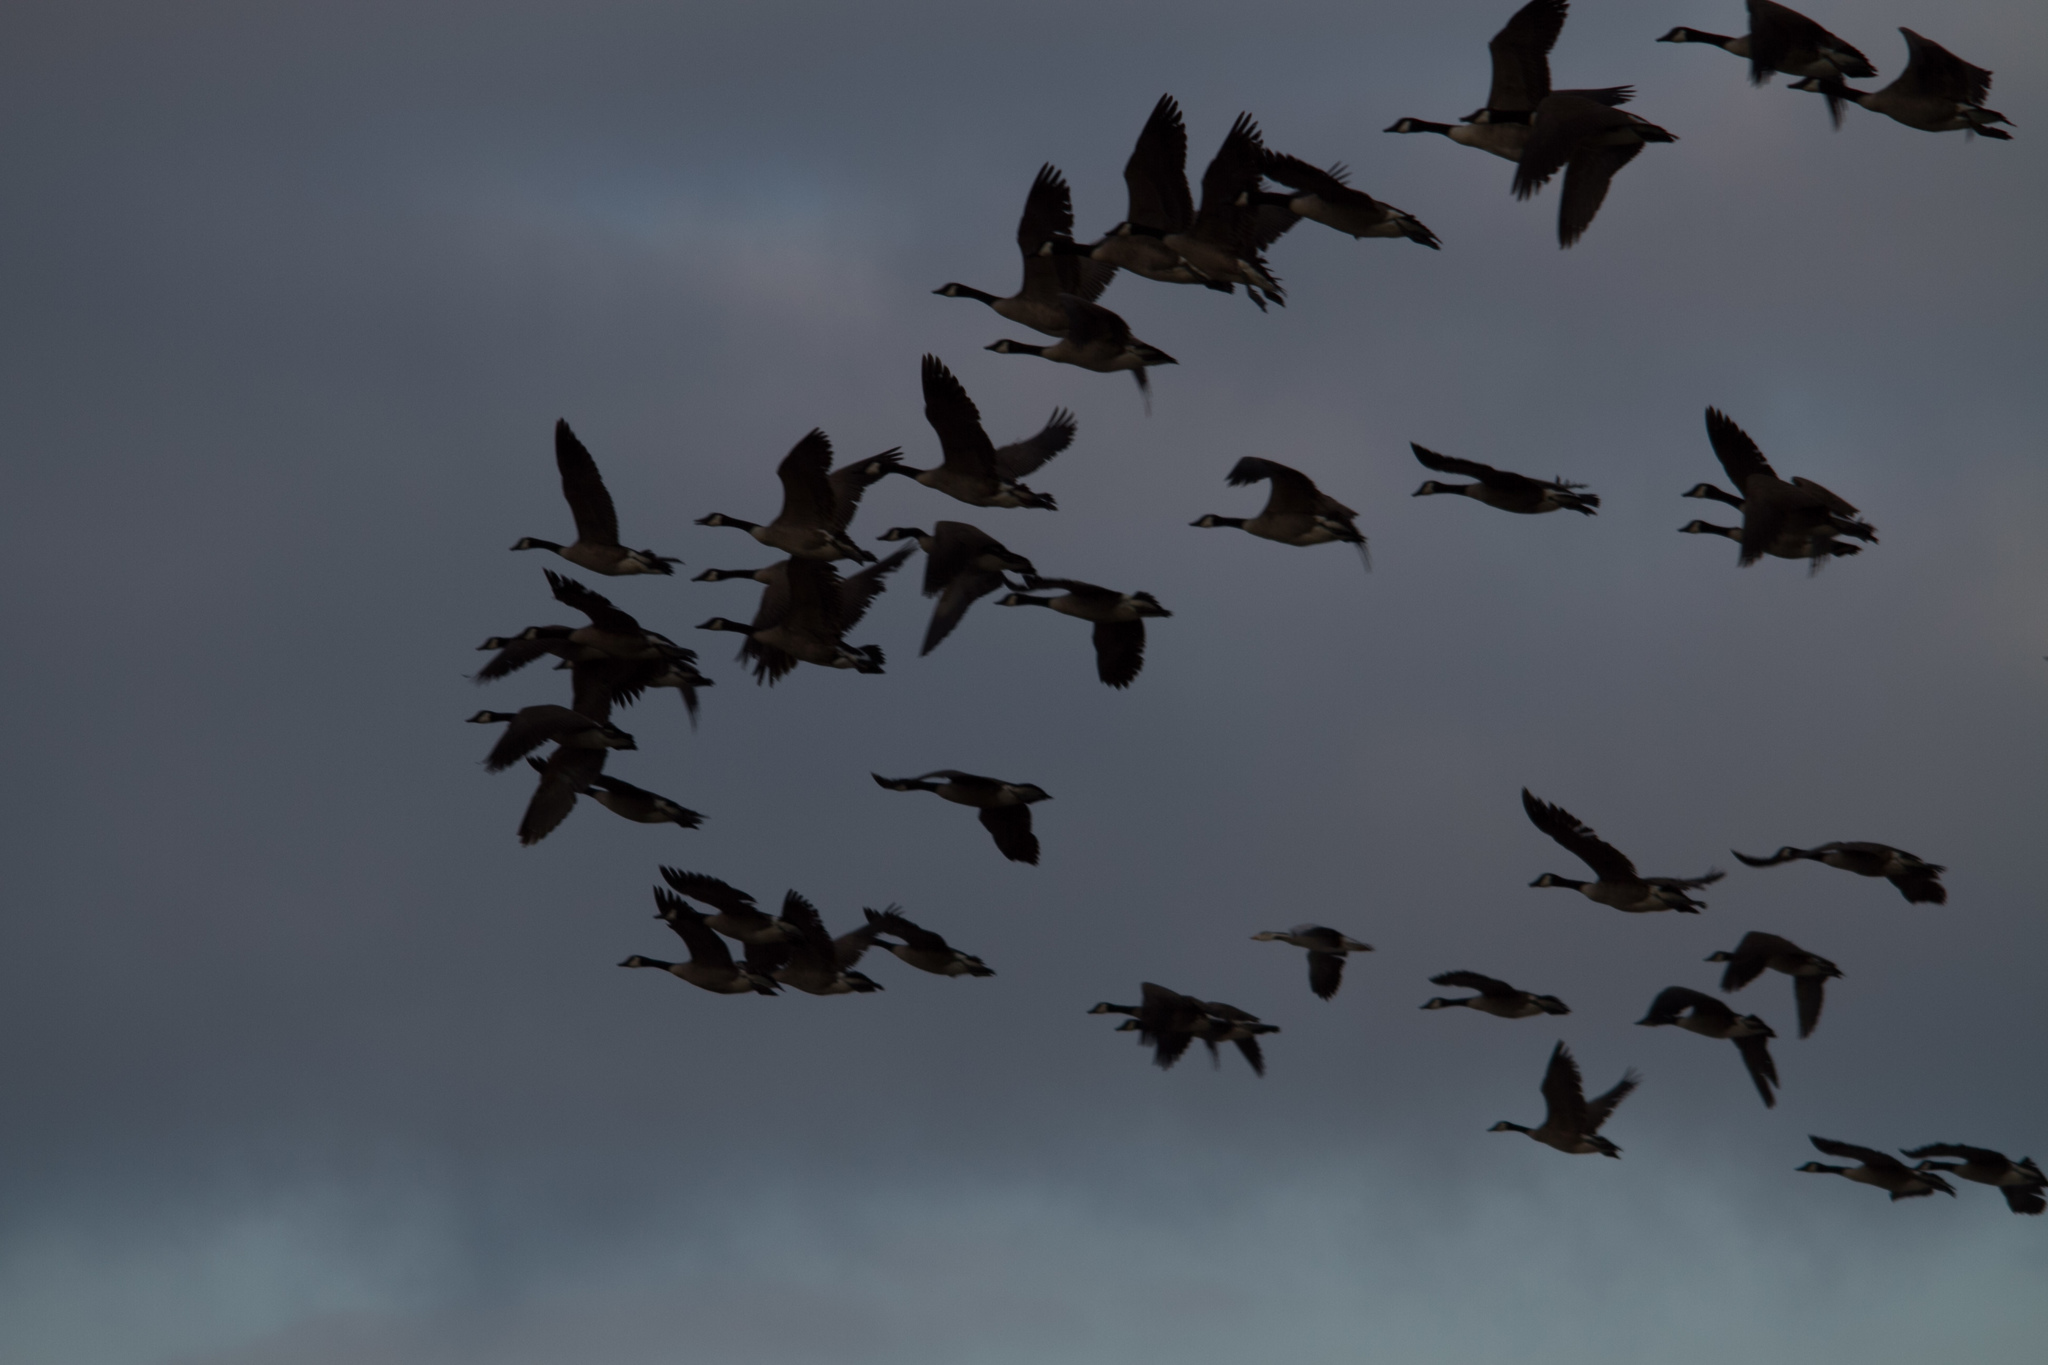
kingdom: Animalia
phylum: Chordata
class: Aves
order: Anseriformes
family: Anatidae
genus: Branta
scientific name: Branta canadensis
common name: Canada goose
